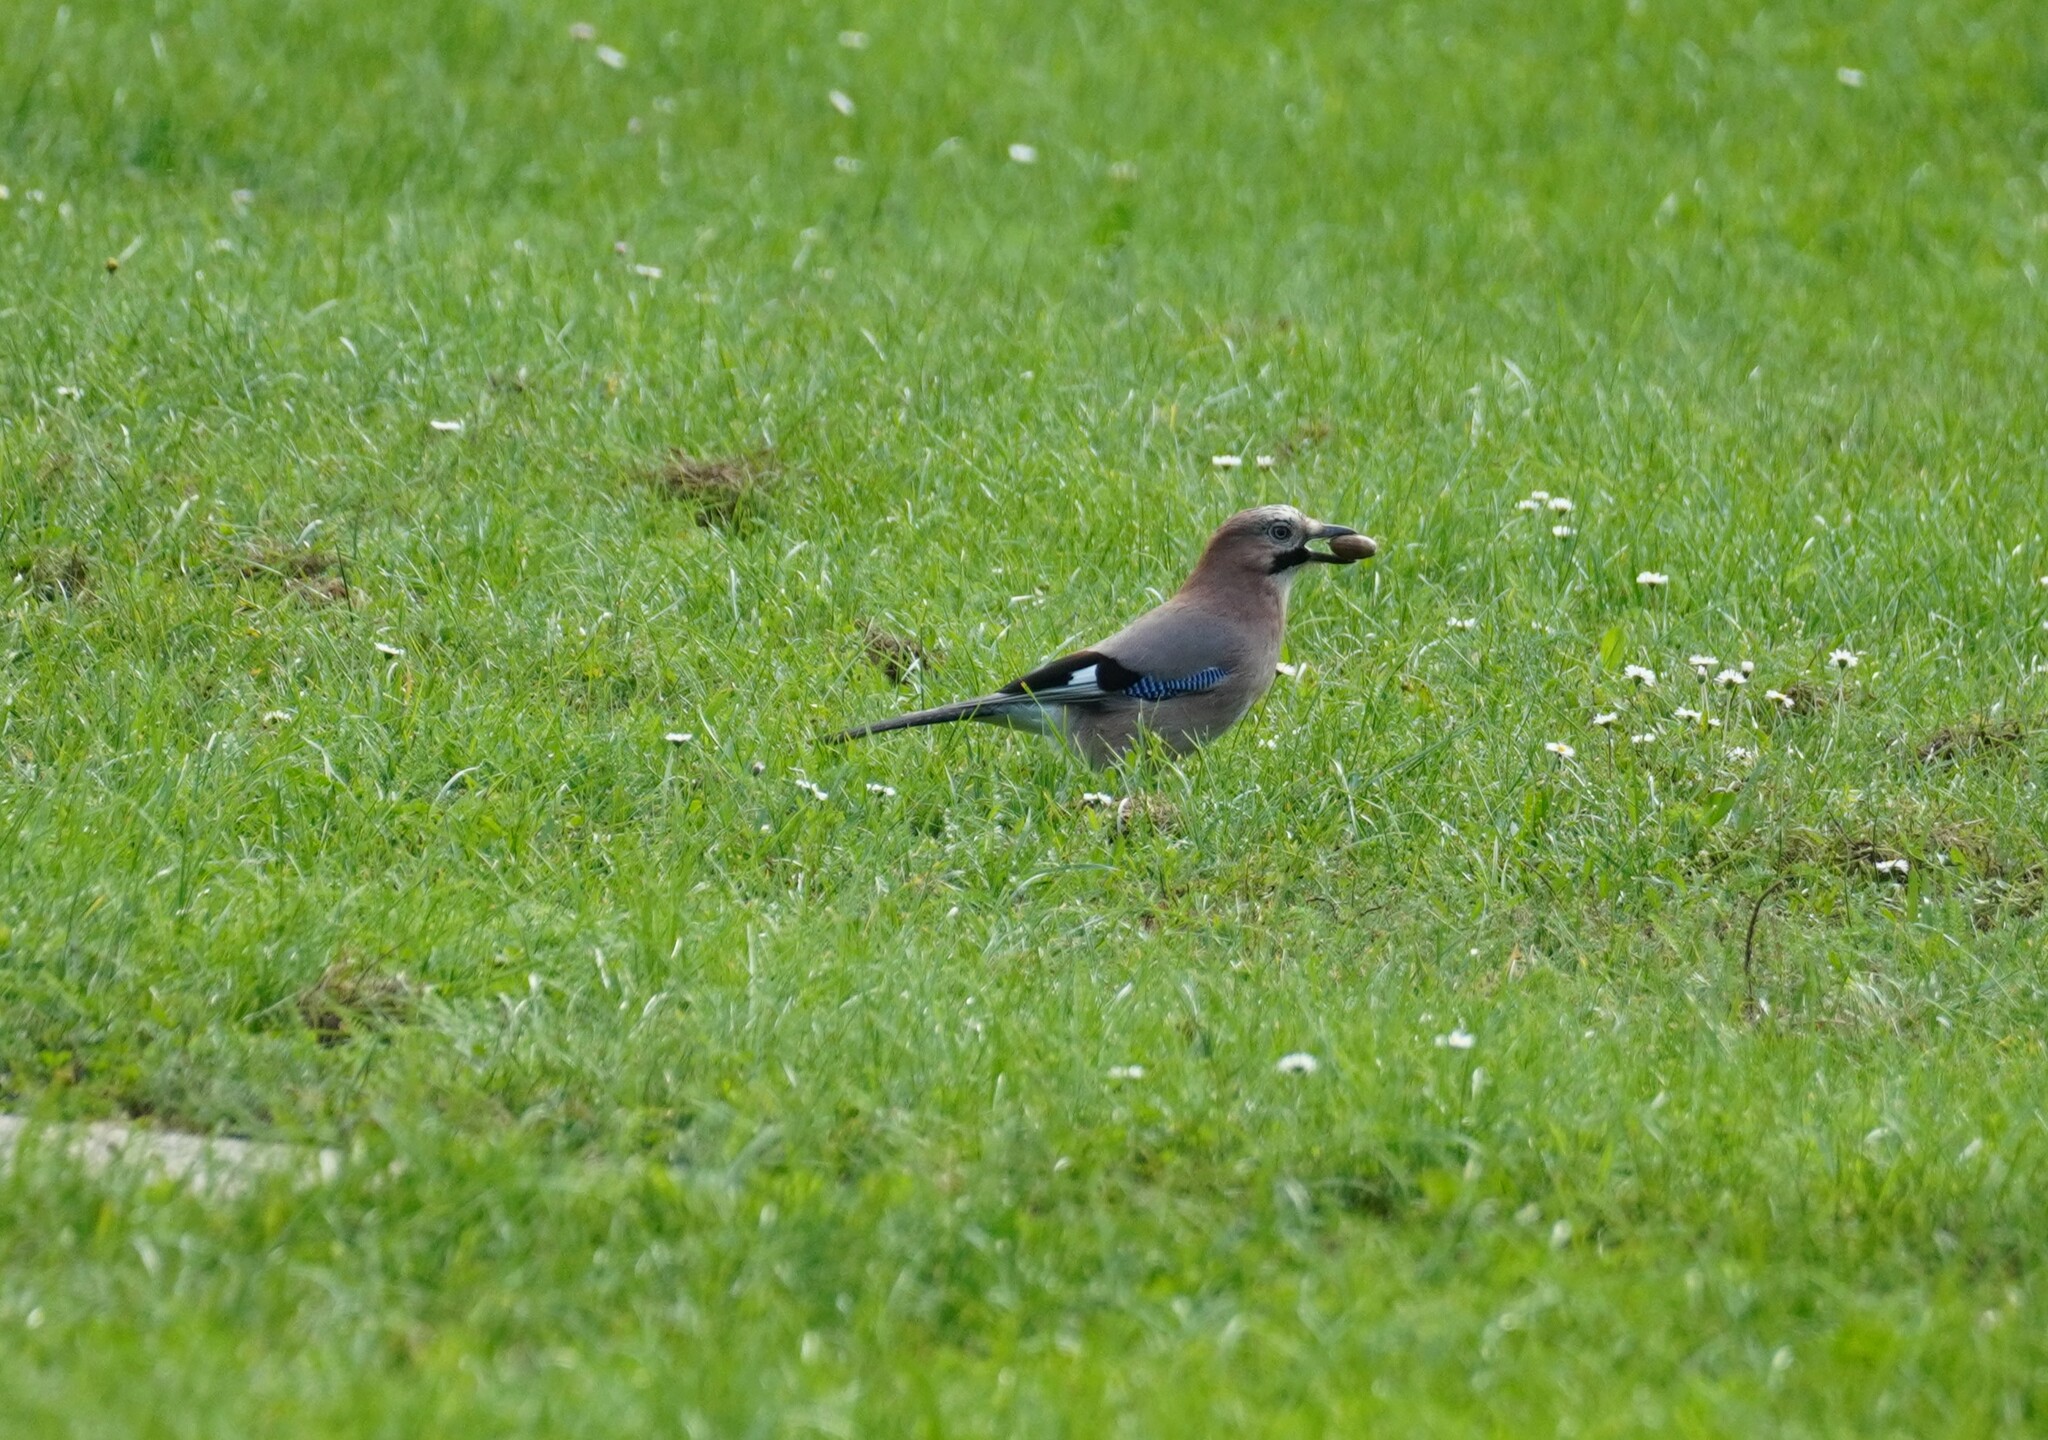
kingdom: Animalia
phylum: Chordata
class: Aves
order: Passeriformes
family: Corvidae
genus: Garrulus
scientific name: Garrulus glandarius
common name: Eurasian jay
